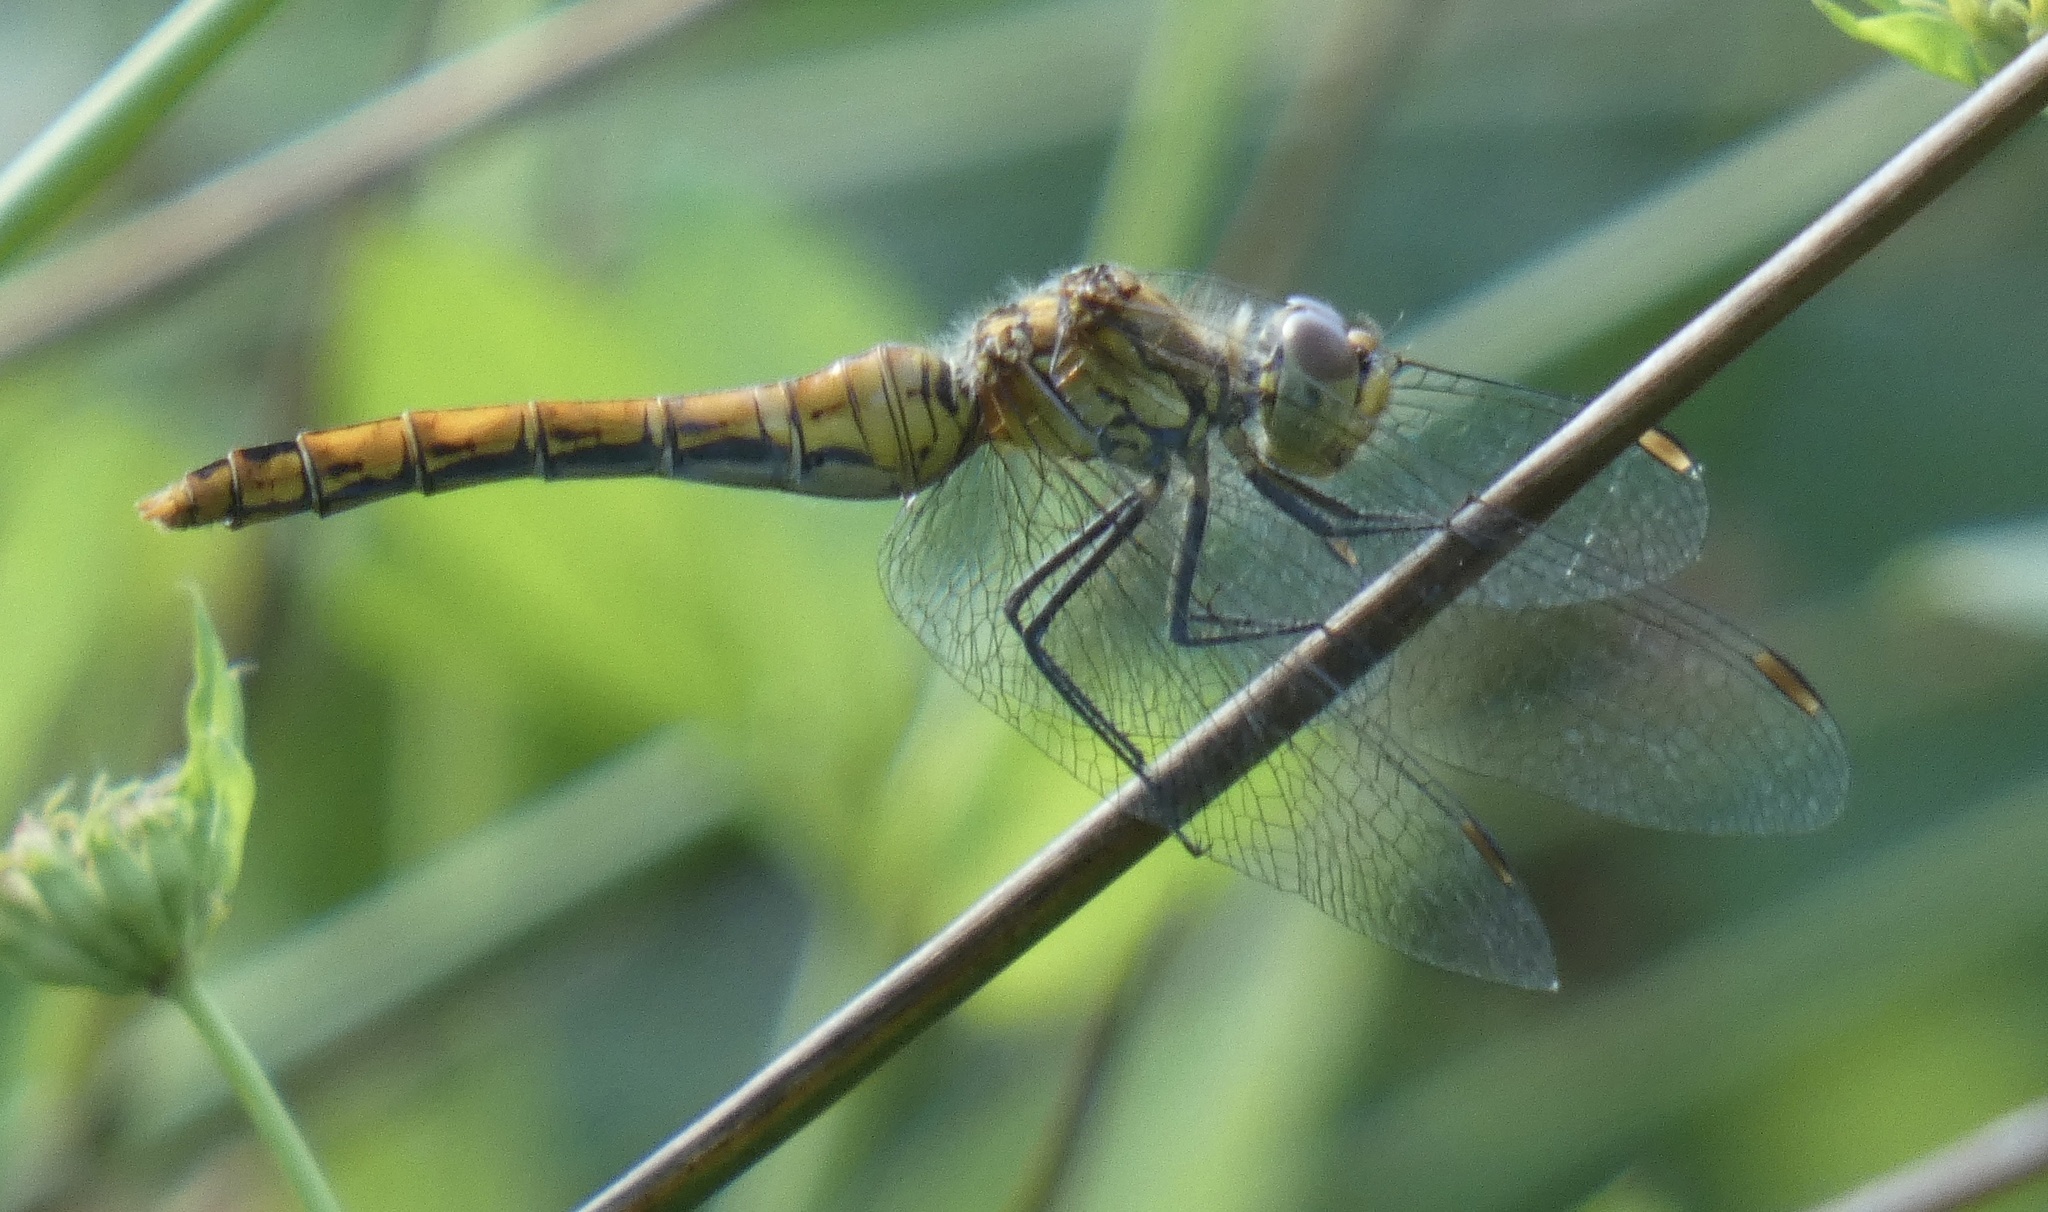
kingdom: Animalia
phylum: Arthropoda
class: Insecta
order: Odonata
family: Libellulidae
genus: Sympetrum
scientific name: Sympetrum sanguineum
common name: Ruddy darter
